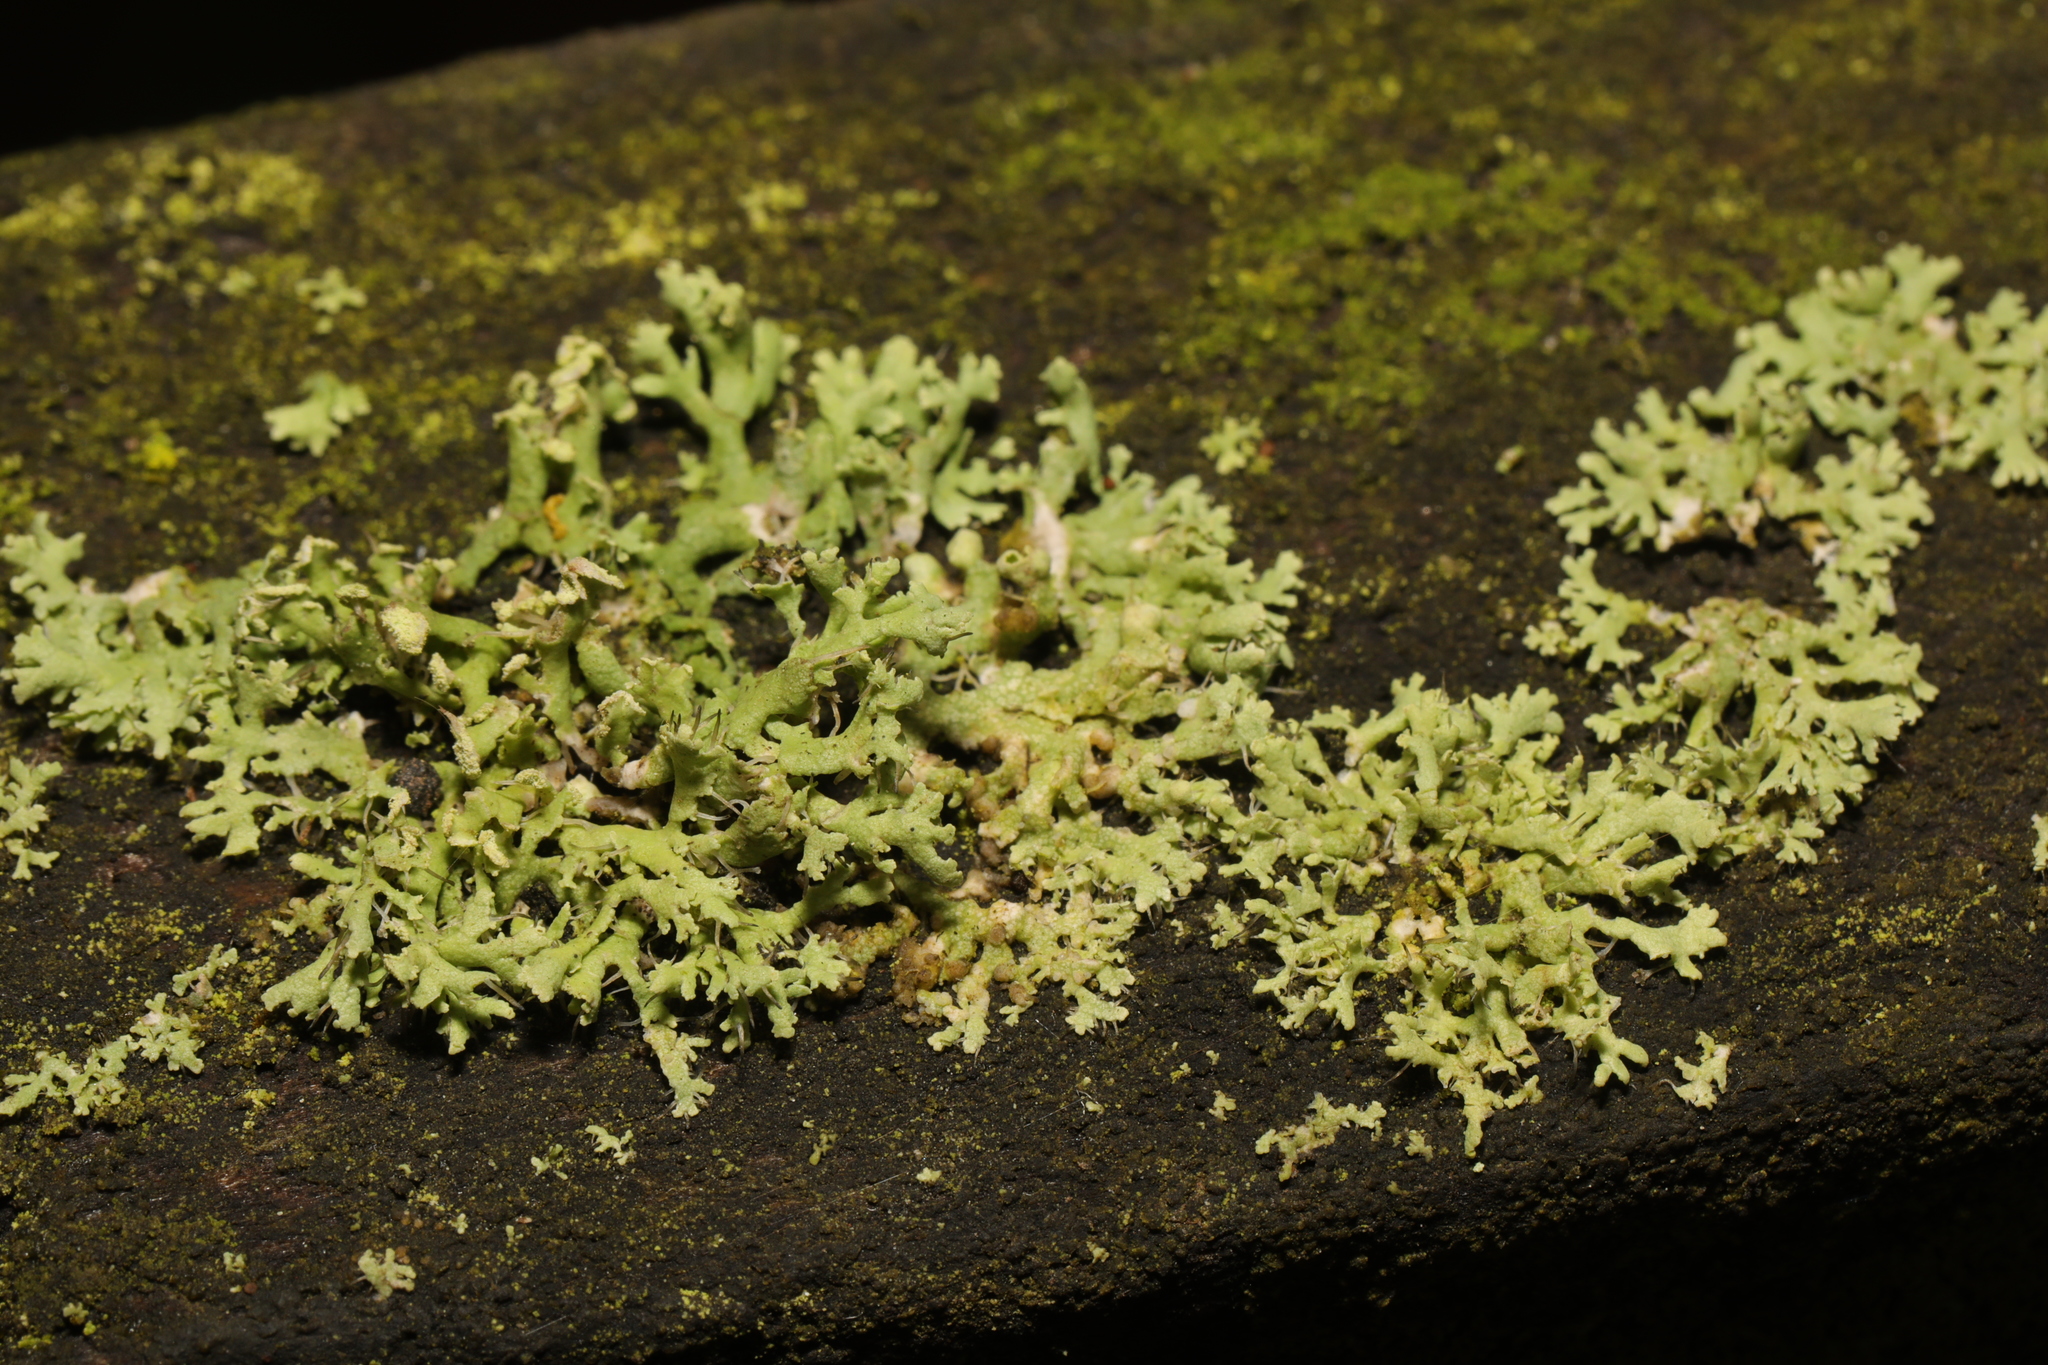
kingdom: Fungi
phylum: Ascomycota
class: Lecanoromycetes
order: Caliciales
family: Physciaceae
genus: Physcia
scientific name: Physcia tenella
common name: Fringed rosette lichen
